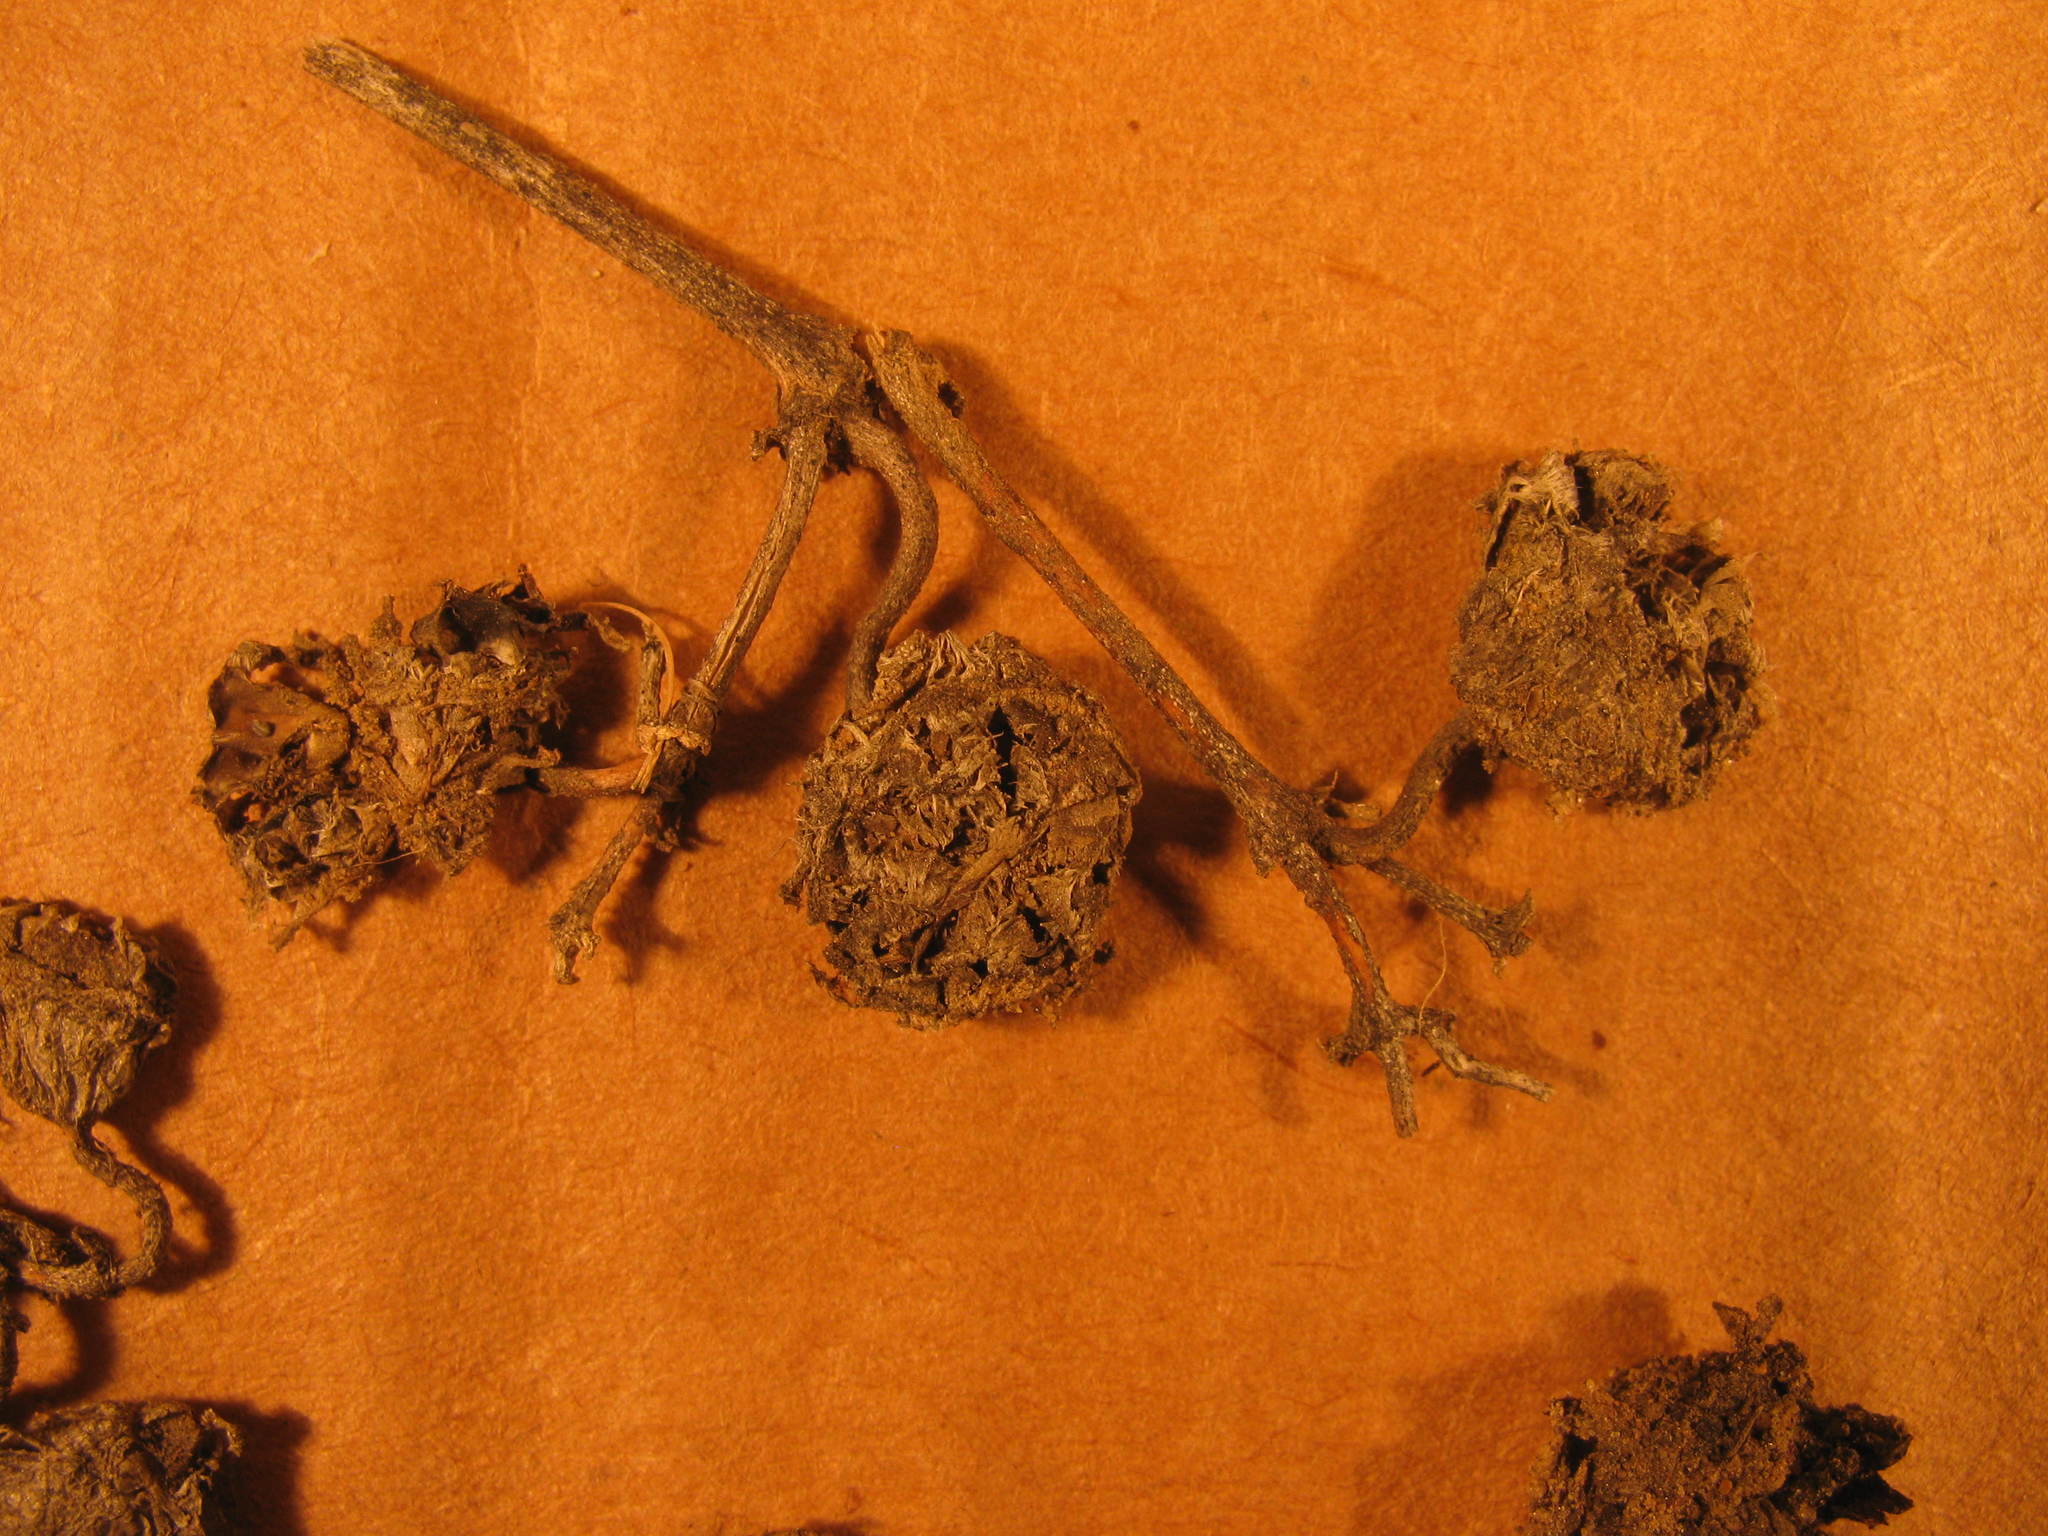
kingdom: Plantae
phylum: Tracheophyta
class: Magnoliopsida
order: Caryophyllales
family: Aizoaceae
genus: Mesembryanthemum
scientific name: Mesembryanthemum grossum
